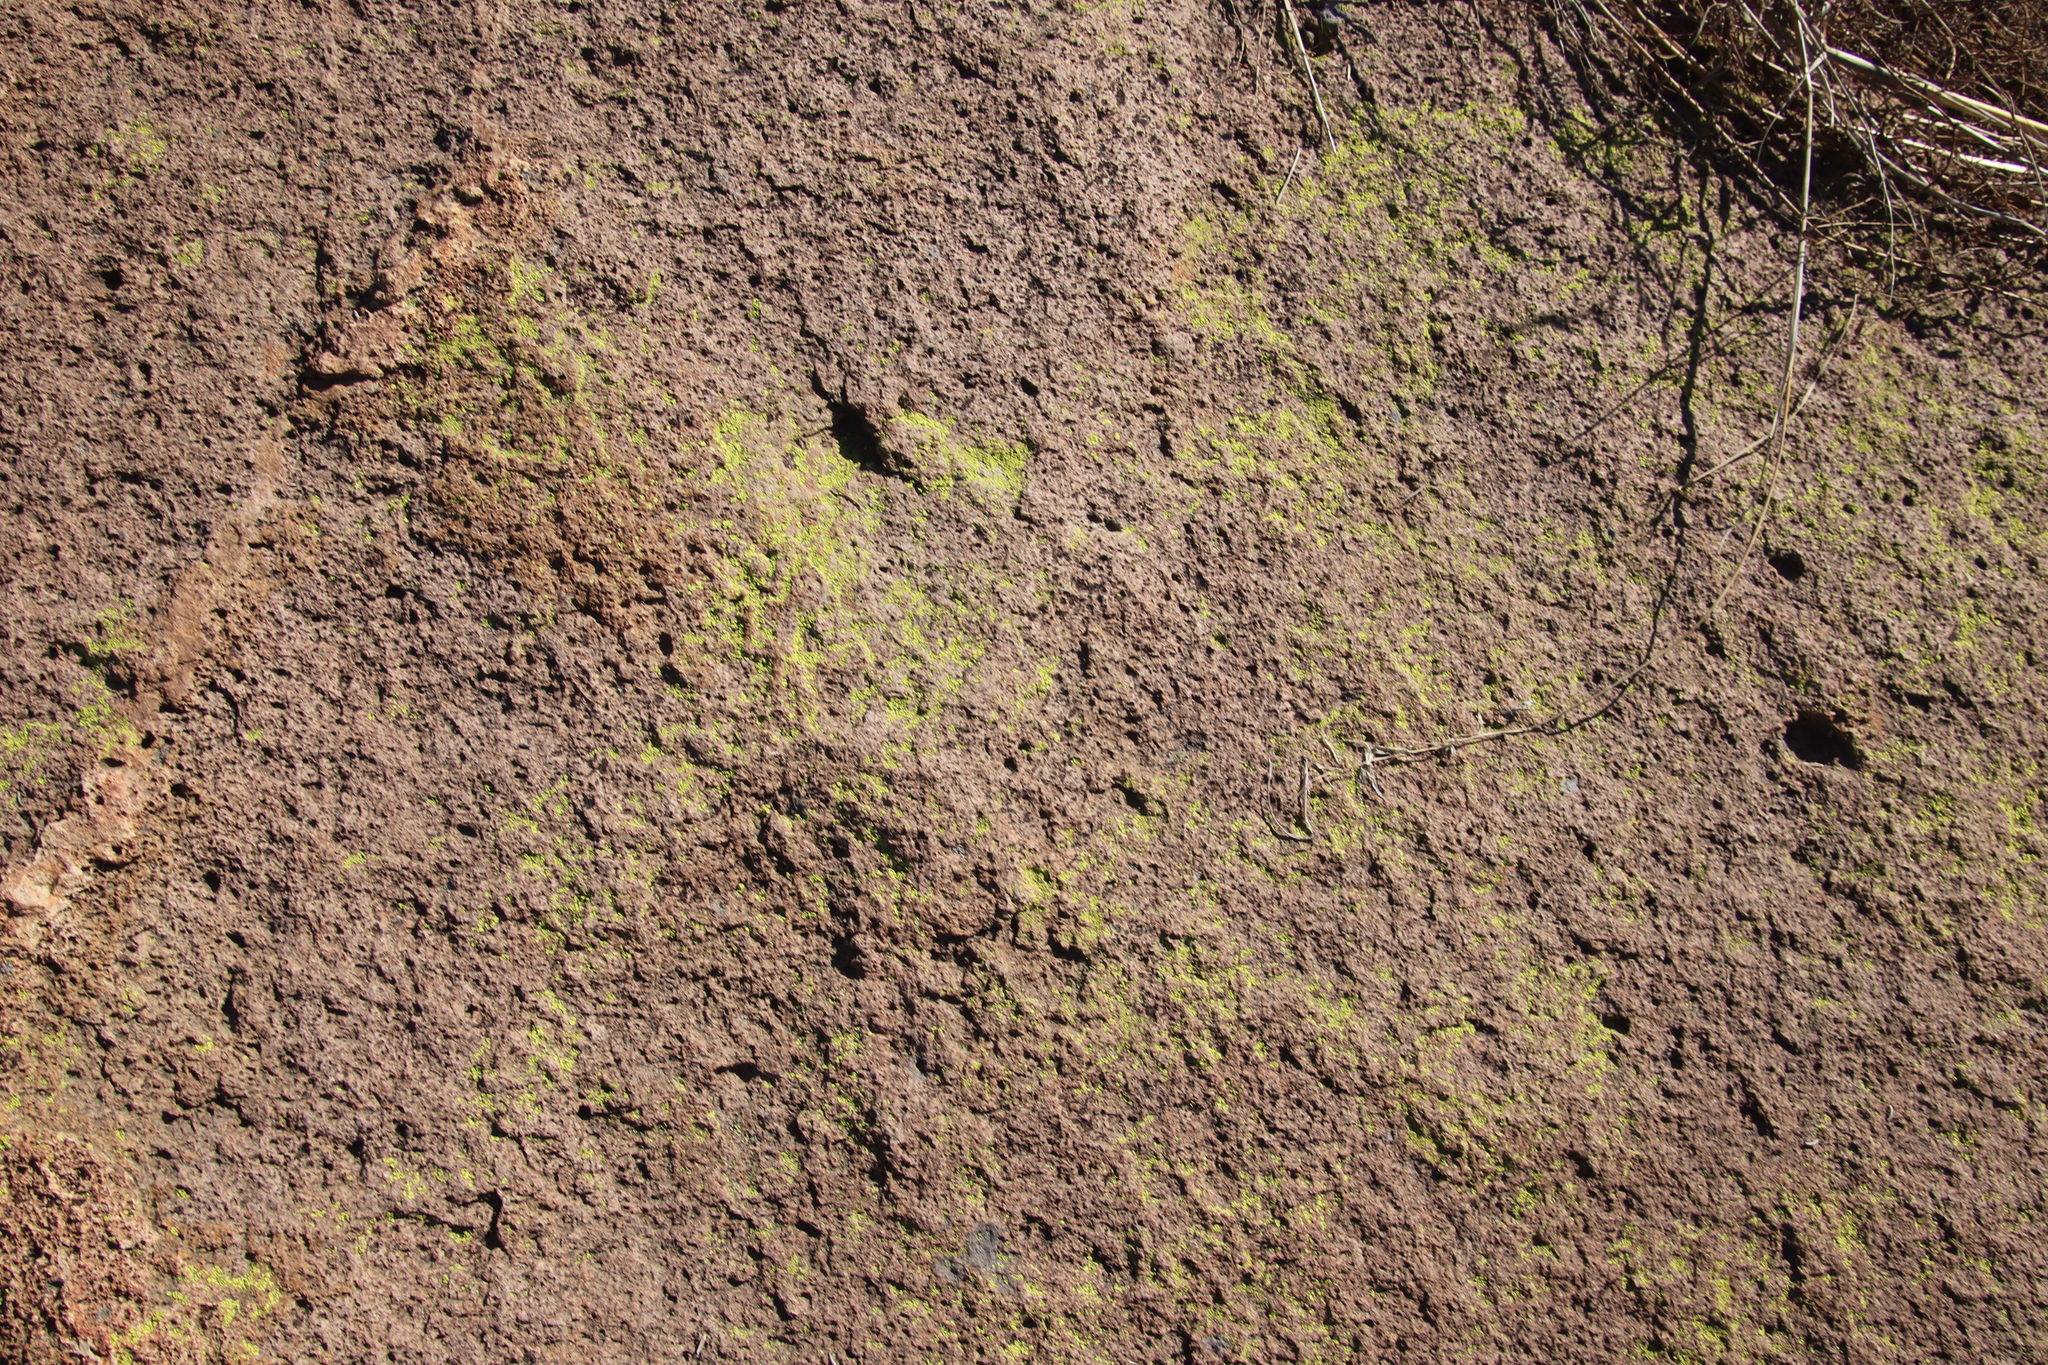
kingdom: Fungi
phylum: Ascomycota
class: Lecanoromycetes
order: Acarosporales
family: Acarosporaceae
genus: Acarospora
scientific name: Acarospora socialis
